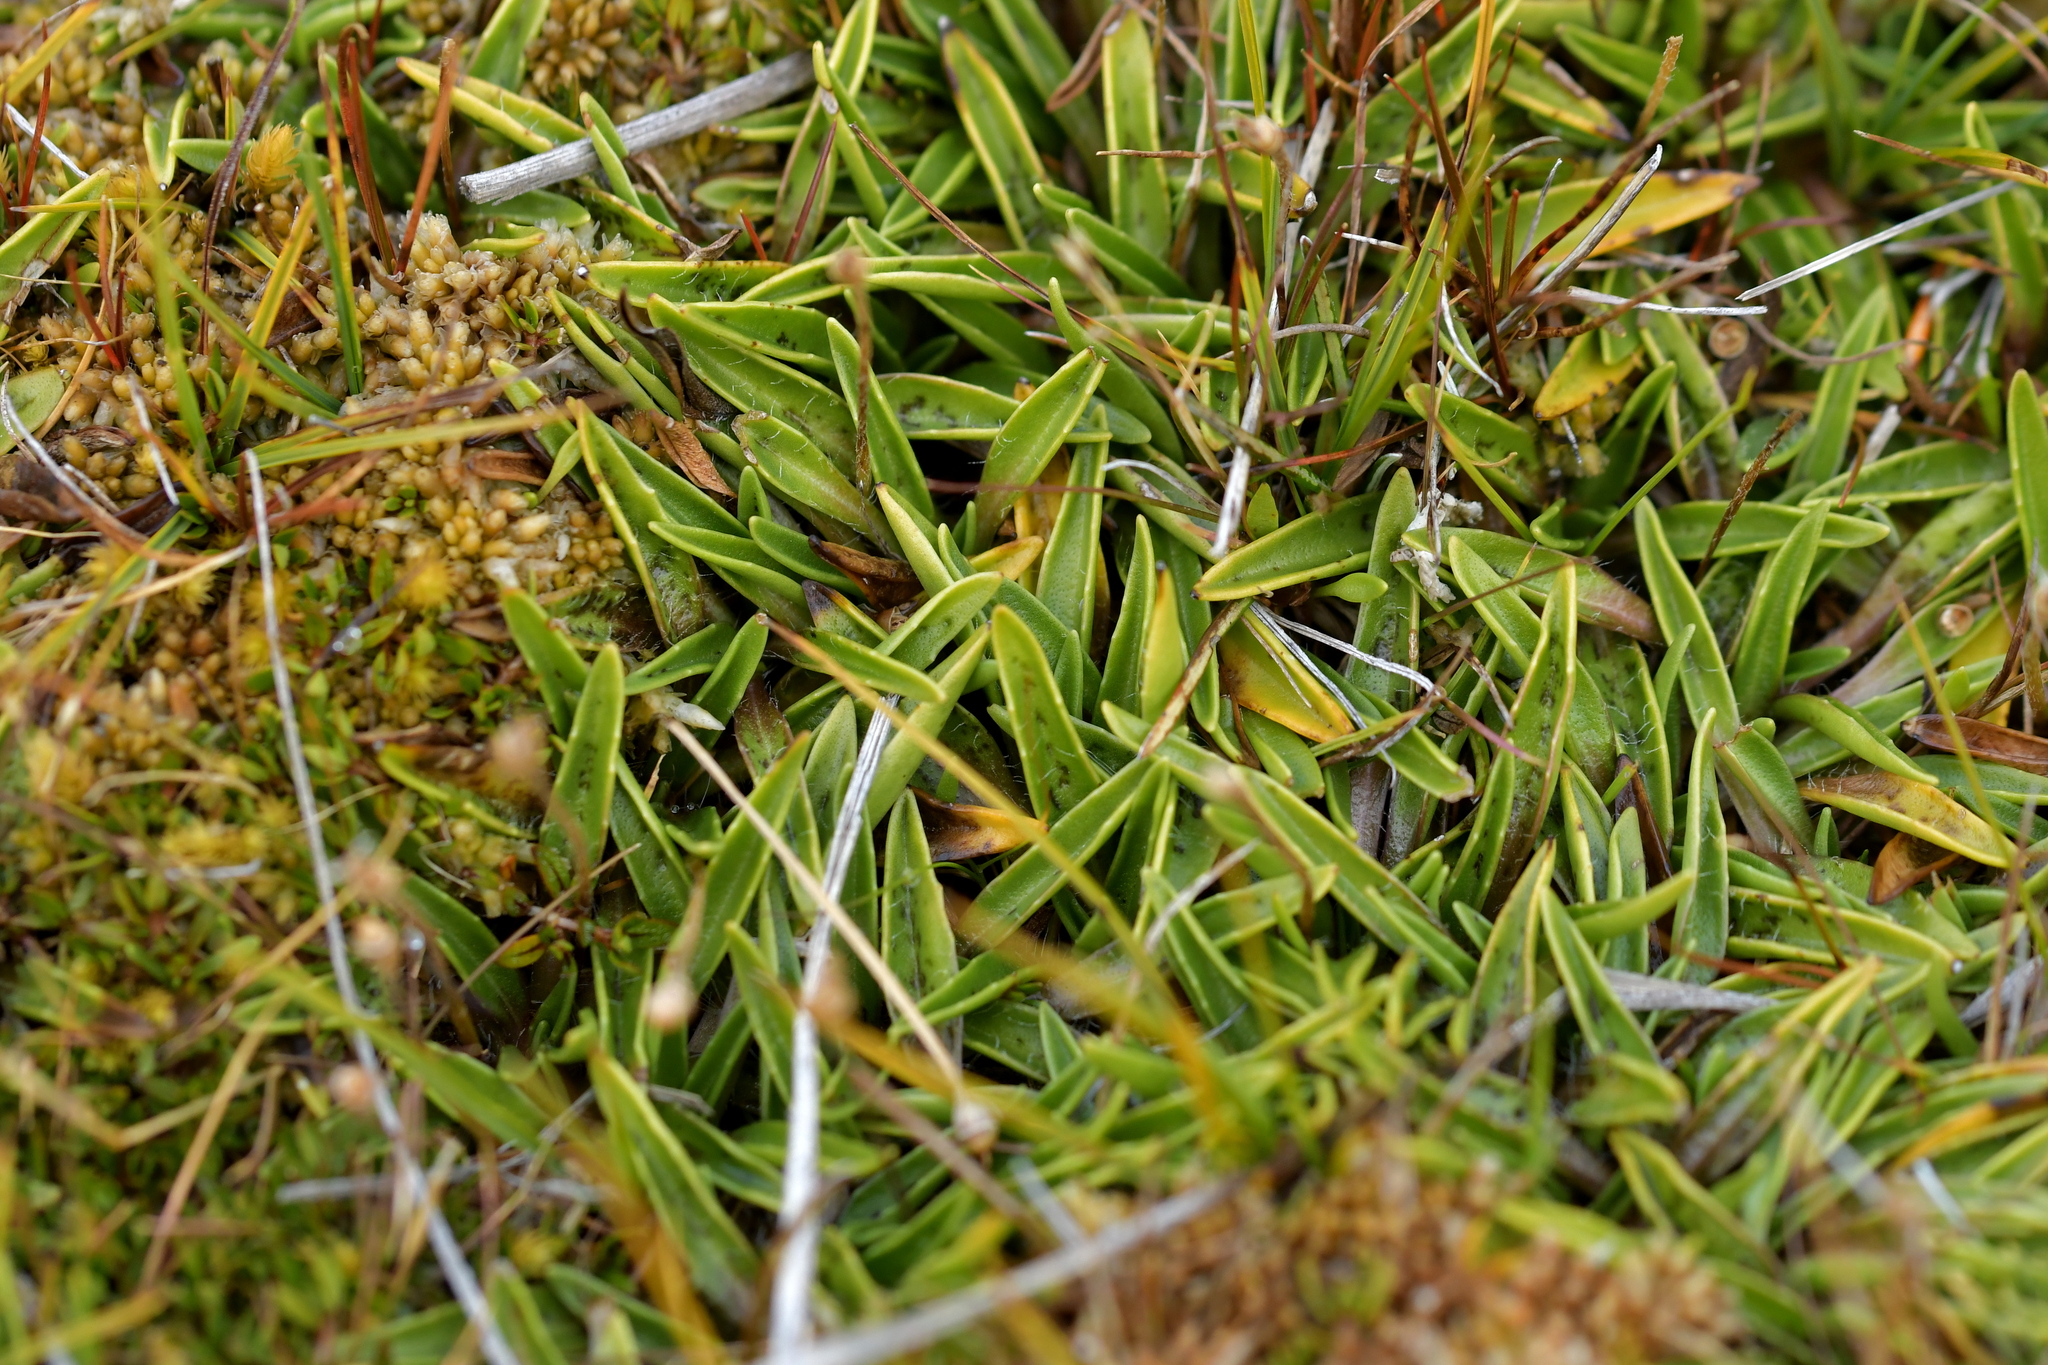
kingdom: Plantae
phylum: Tracheophyta
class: Magnoliopsida
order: Lamiales
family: Plantaginaceae
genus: Plantago
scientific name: Plantago unibracteata
